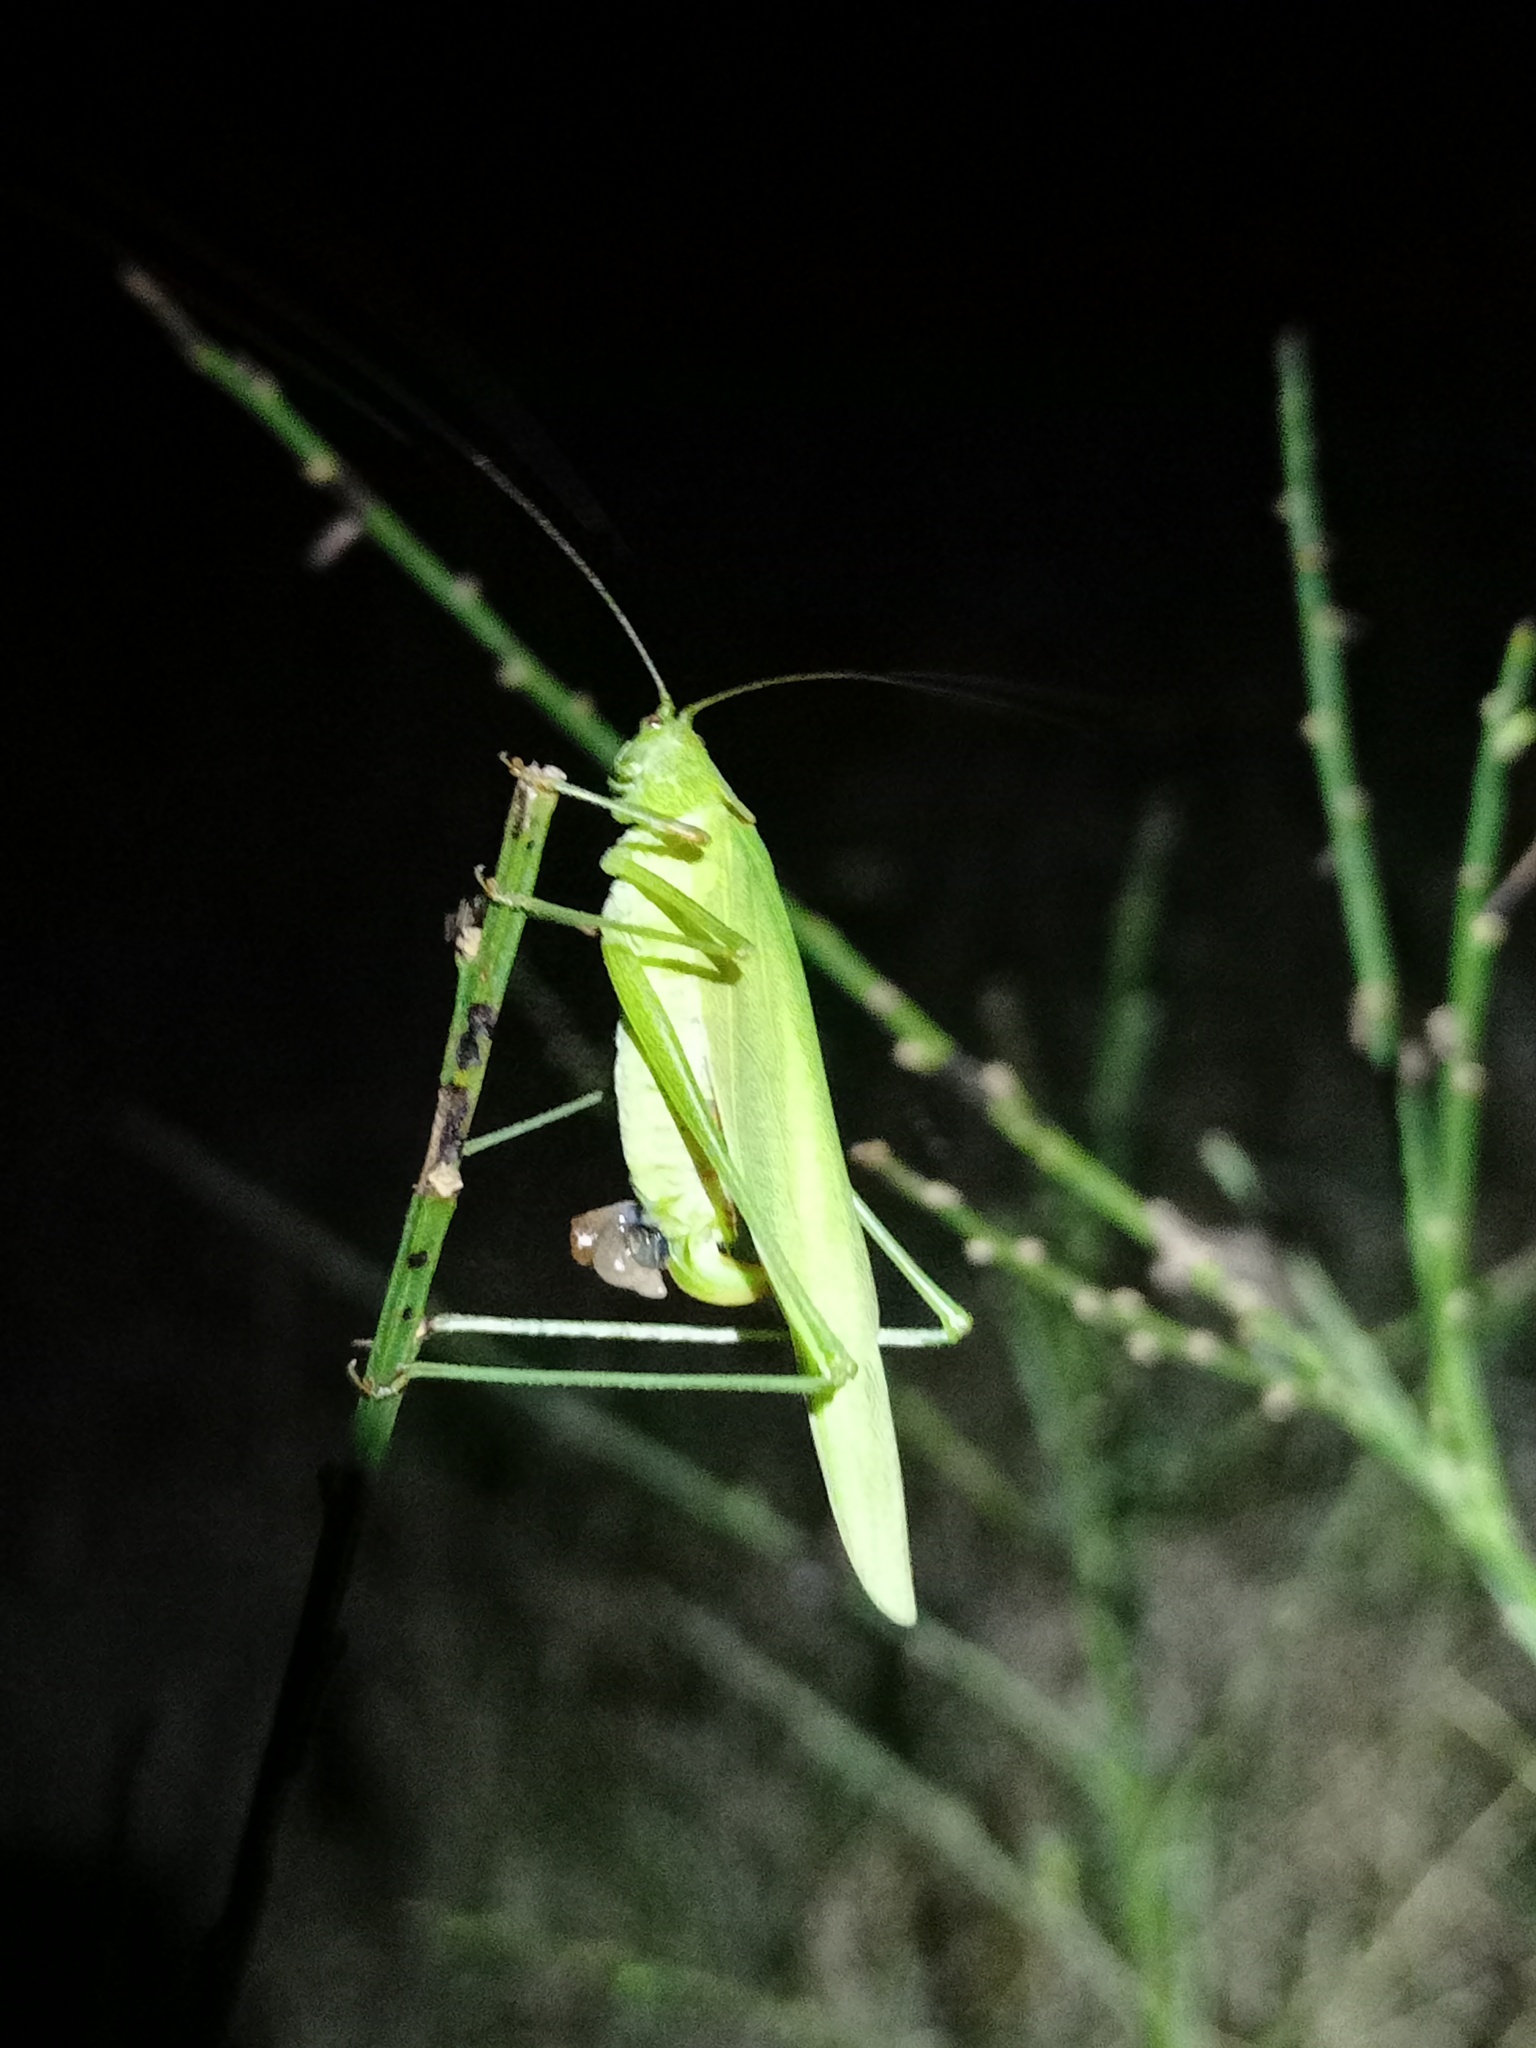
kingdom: Animalia
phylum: Arthropoda
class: Insecta
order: Orthoptera
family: Tettigoniidae
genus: Phaneroptera
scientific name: Phaneroptera falcata
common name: Sickle-bearing bush-cricket
